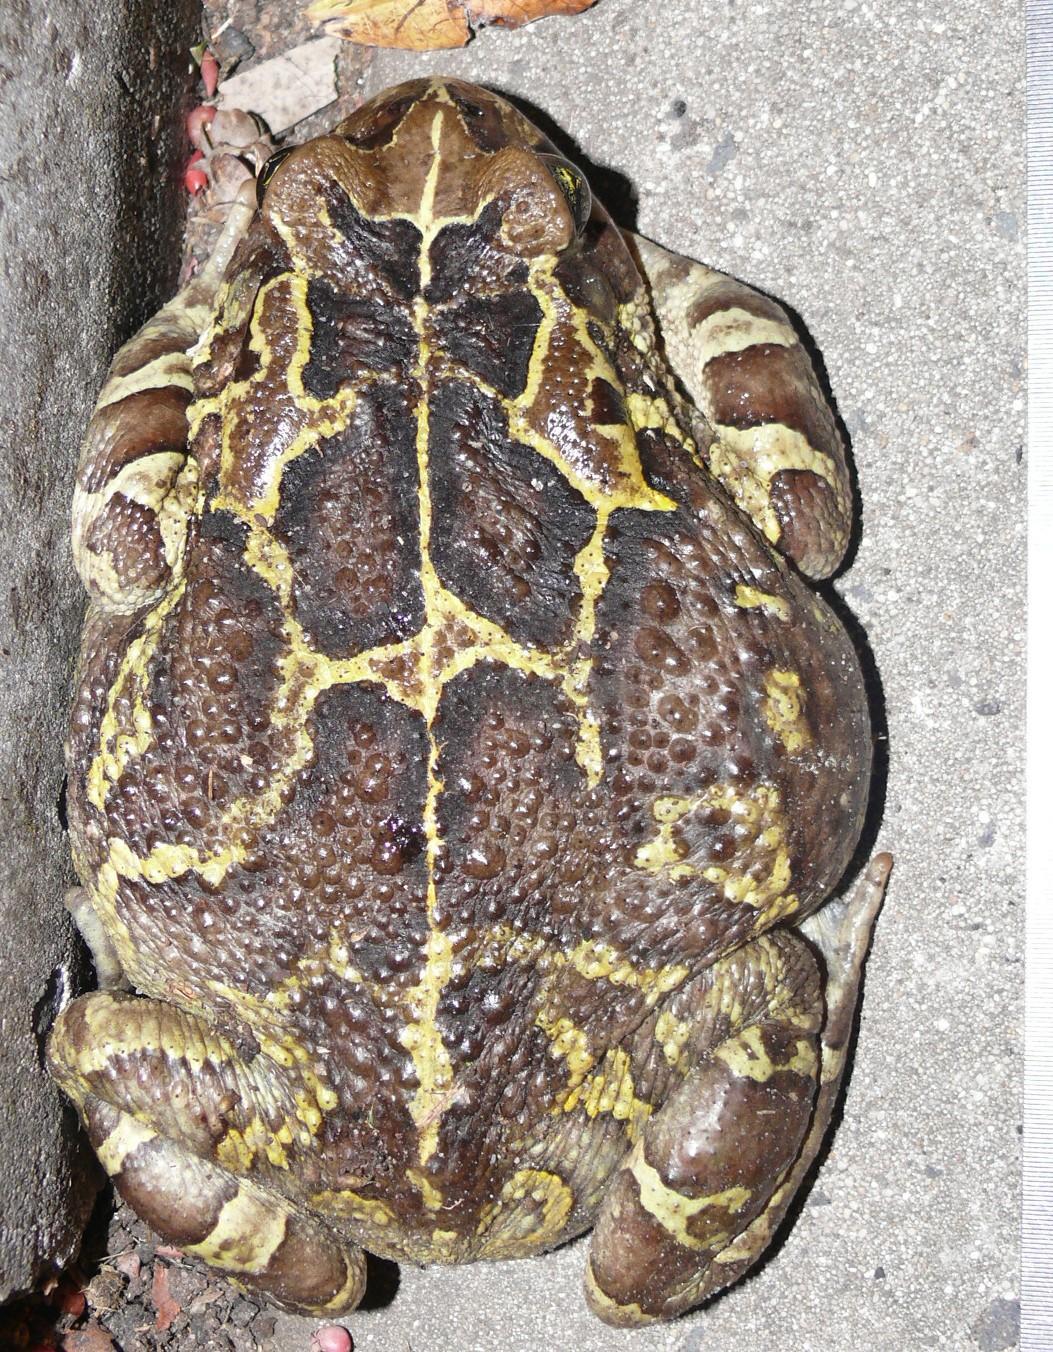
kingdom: Animalia
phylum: Chordata
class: Amphibia
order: Anura
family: Bufonidae
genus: Sclerophrys
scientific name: Sclerophrys pantherina
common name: Panther toad
